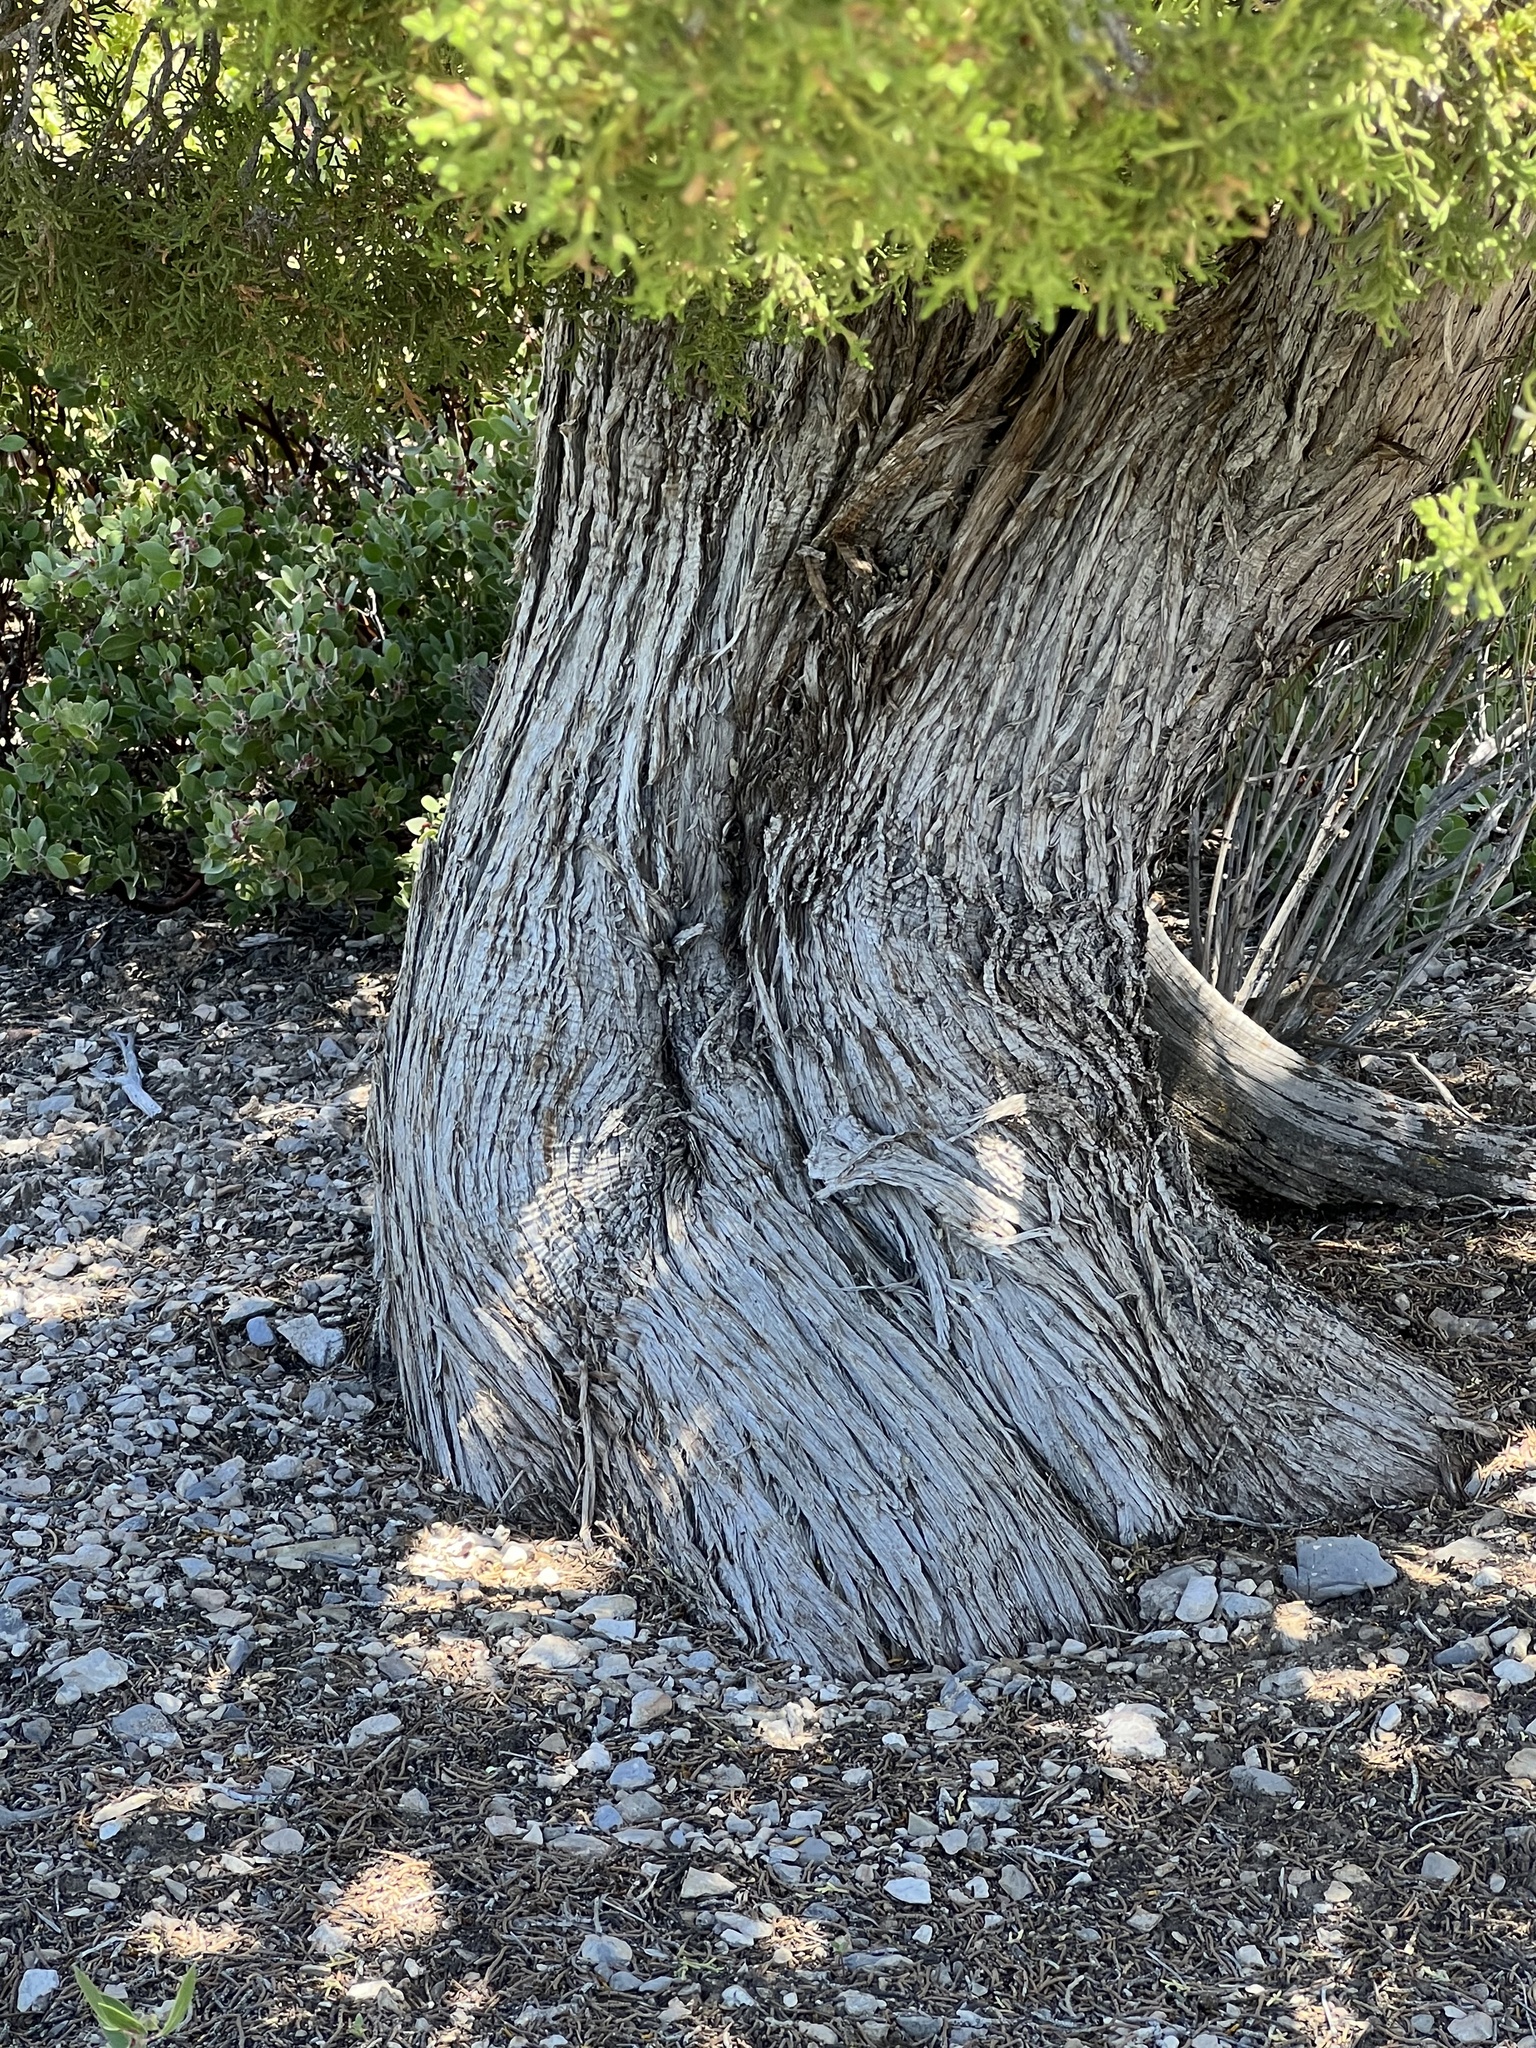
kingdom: Plantae
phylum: Tracheophyta
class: Pinopsida
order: Pinales
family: Cupressaceae
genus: Juniperus
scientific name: Juniperus osteosperma
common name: Utah juniper
